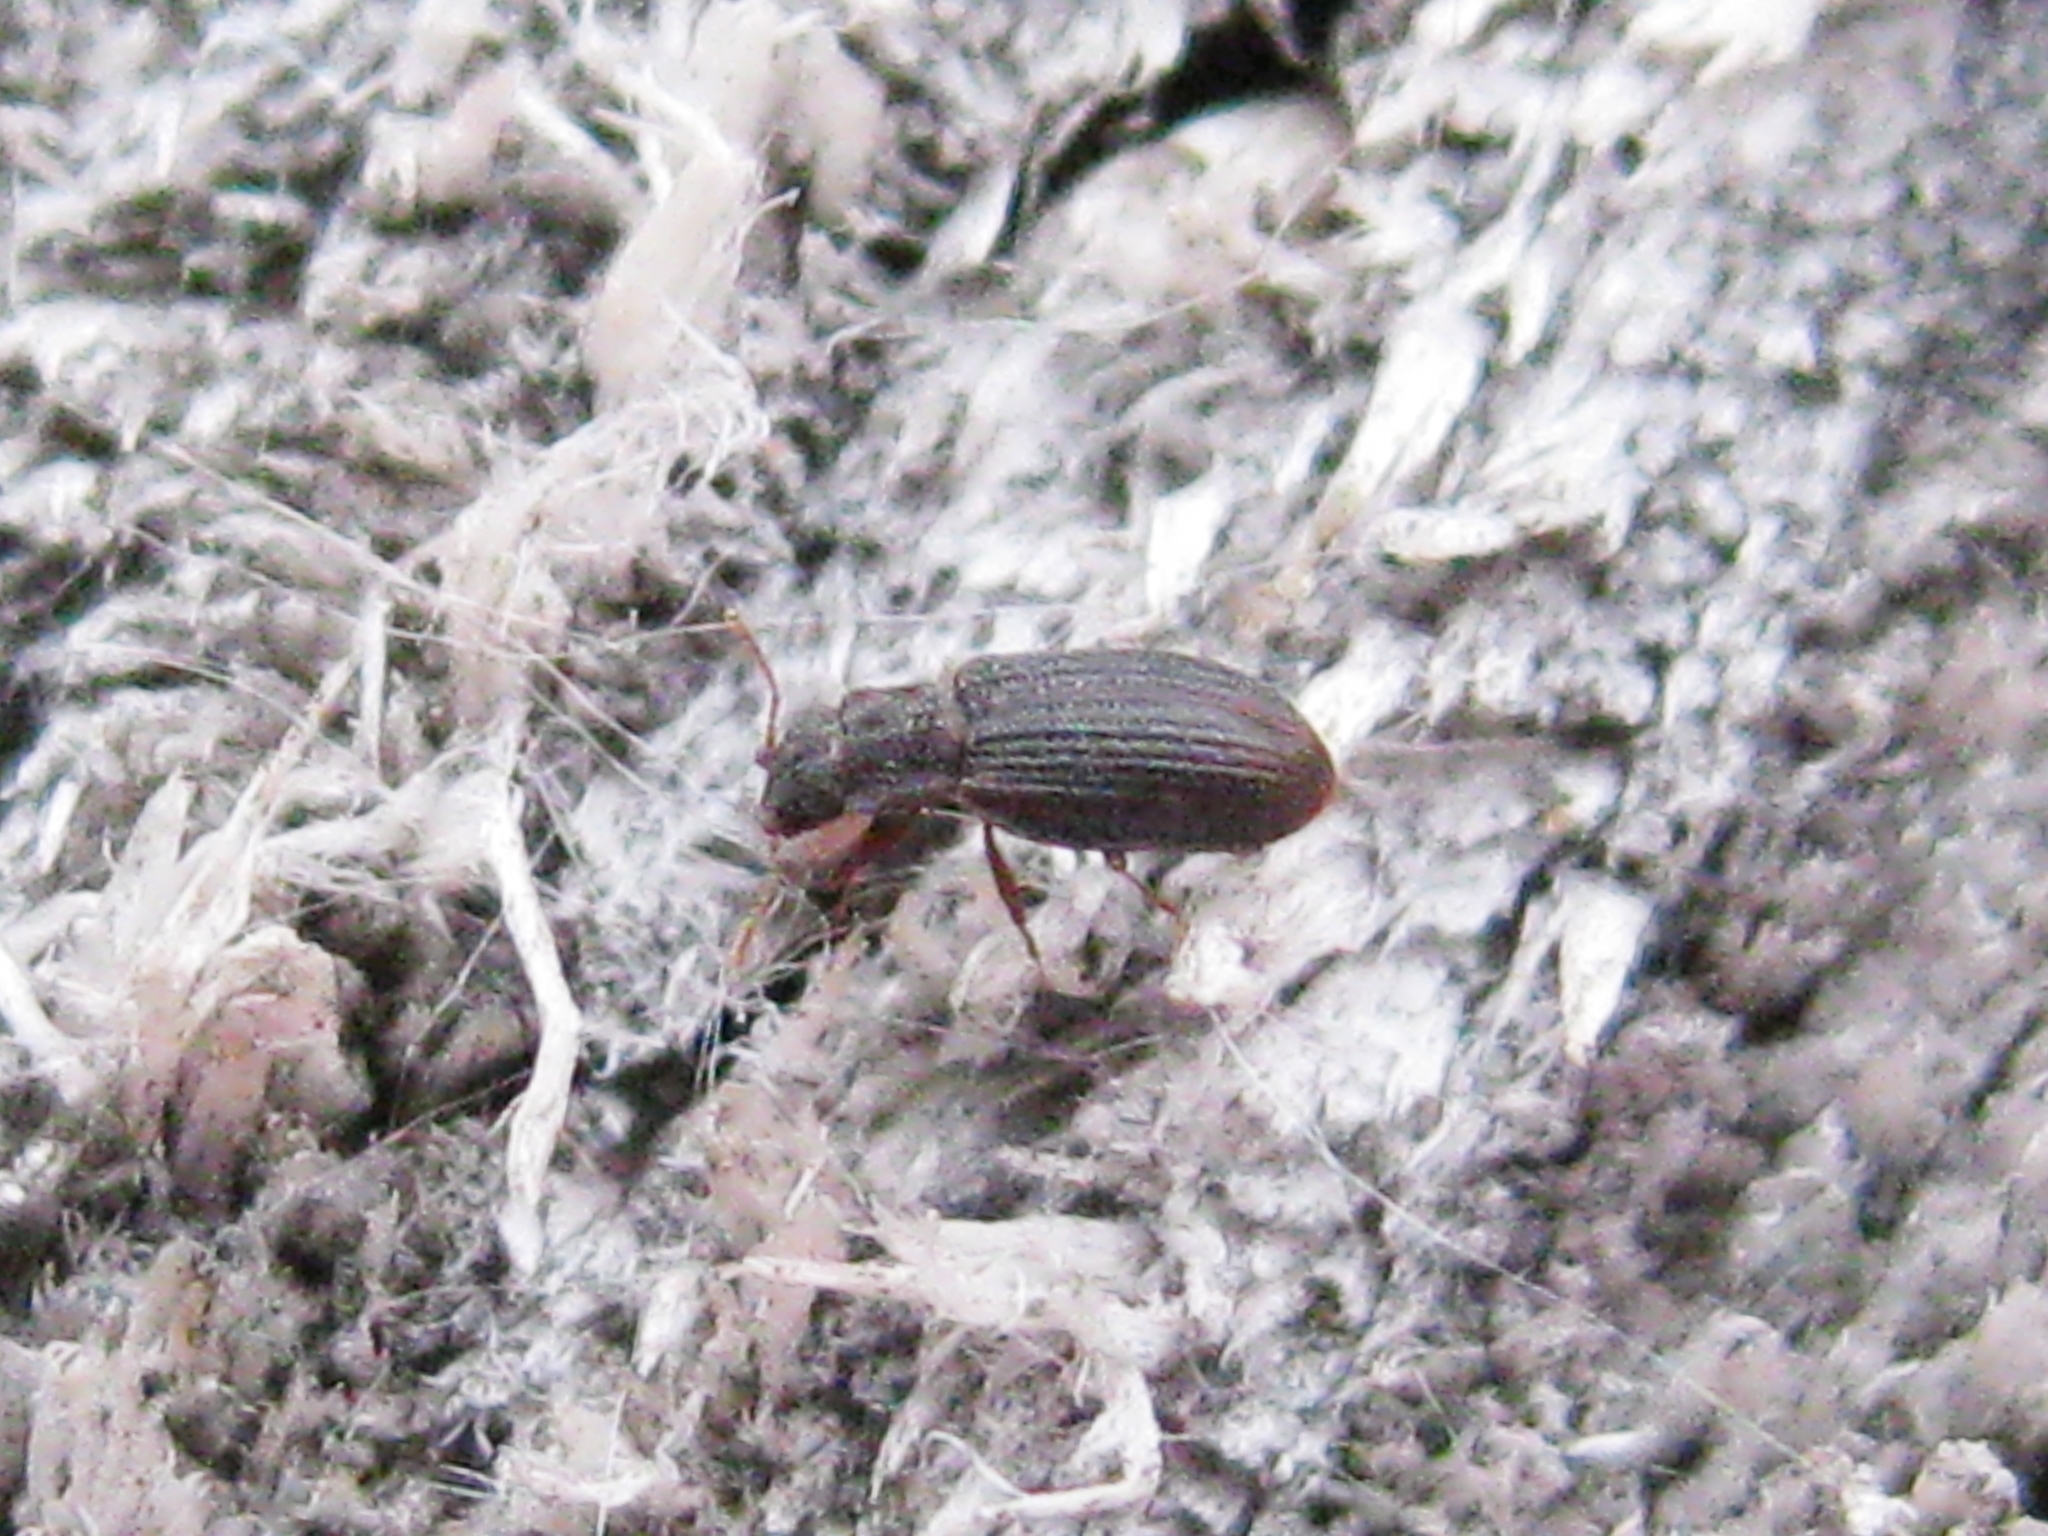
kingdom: Animalia
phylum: Arthropoda
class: Insecta
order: Coleoptera
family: Latridiidae
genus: Enicmus
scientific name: Enicmus
